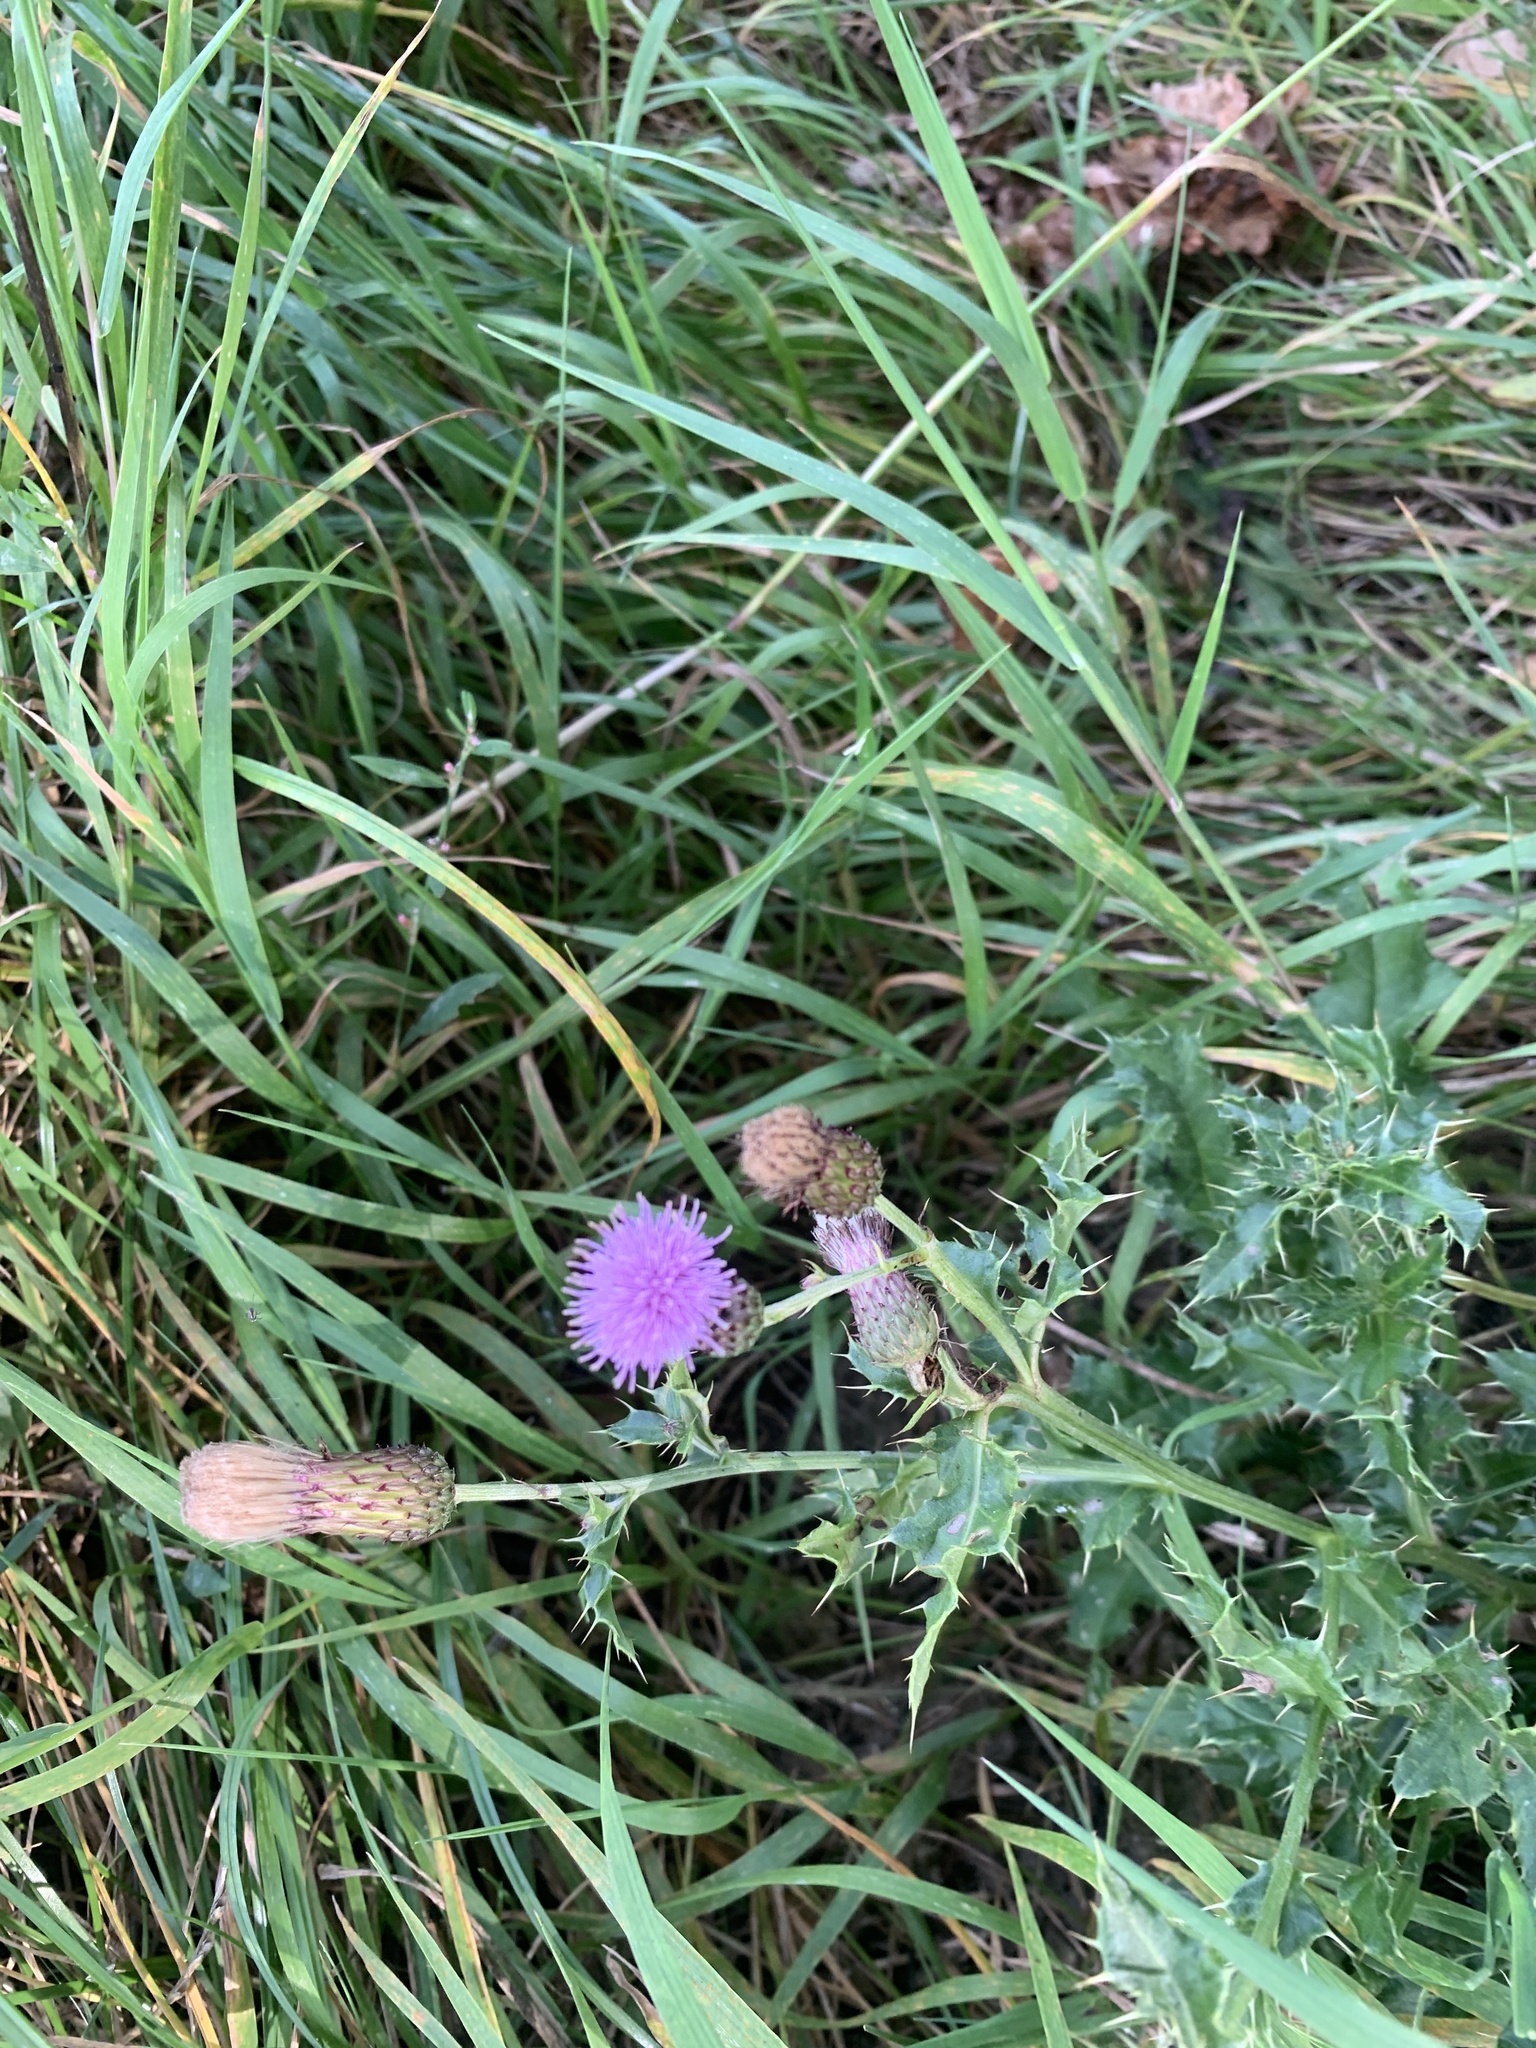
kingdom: Plantae
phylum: Tracheophyta
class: Magnoliopsida
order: Asterales
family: Asteraceae
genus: Cirsium
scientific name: Cirsium arvense
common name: Creeping thistle
